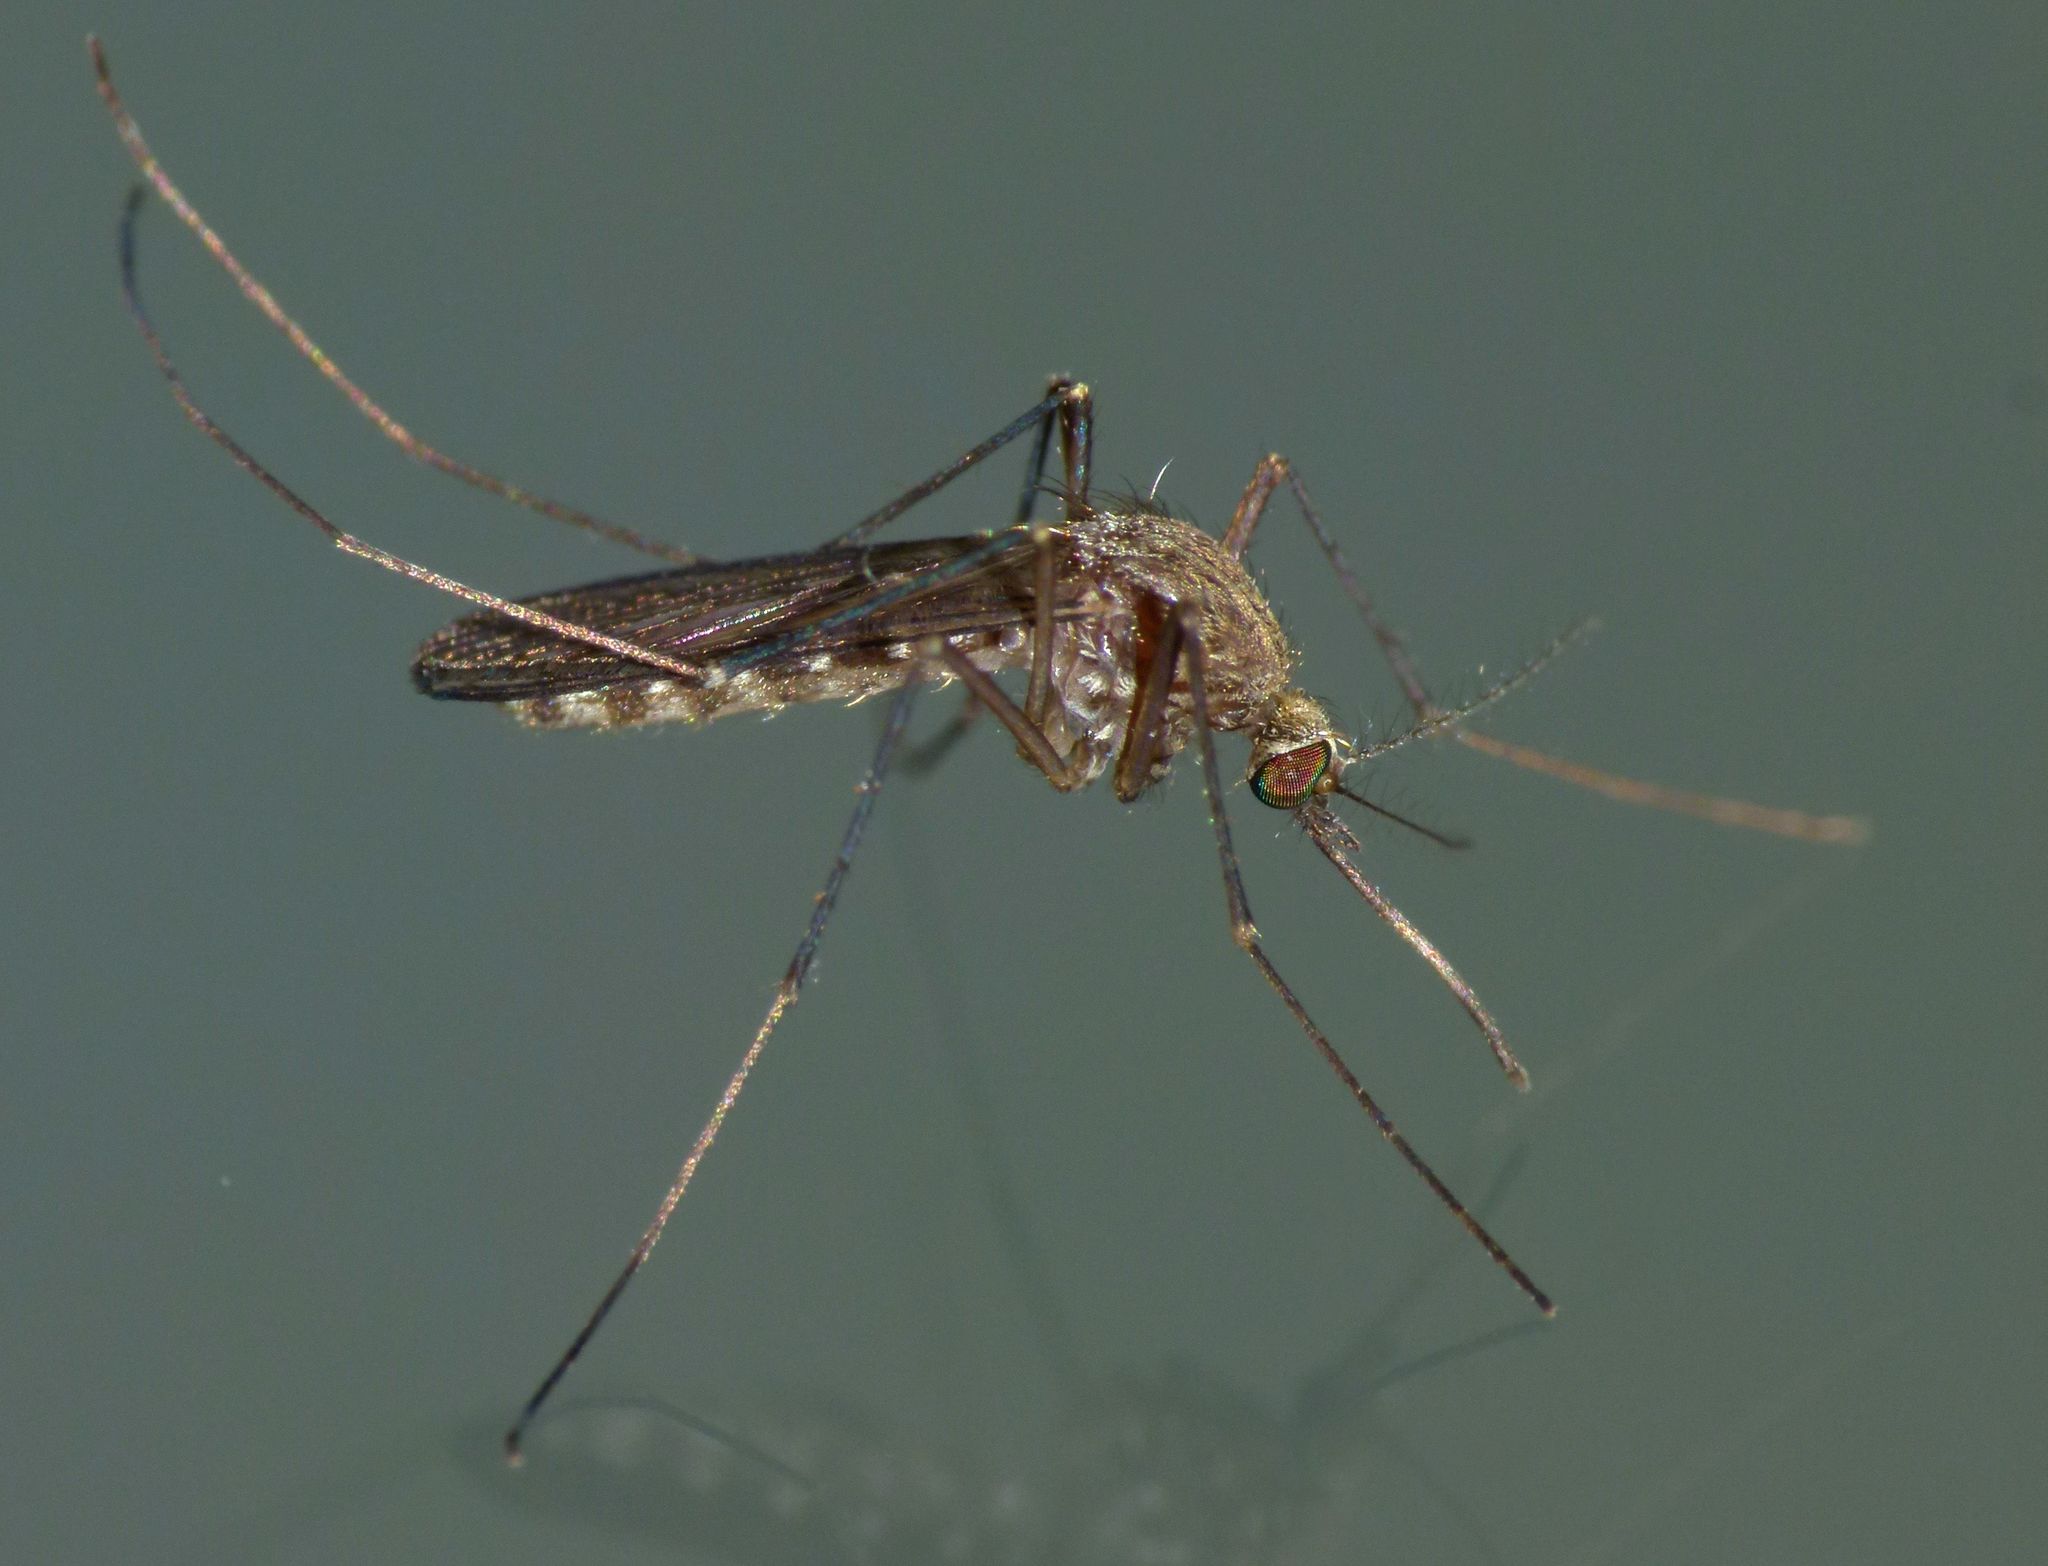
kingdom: Animalia
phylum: Arthropoda
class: Insecta
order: Diptera
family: Culicidae
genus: Culex
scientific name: Culex pervigilans
